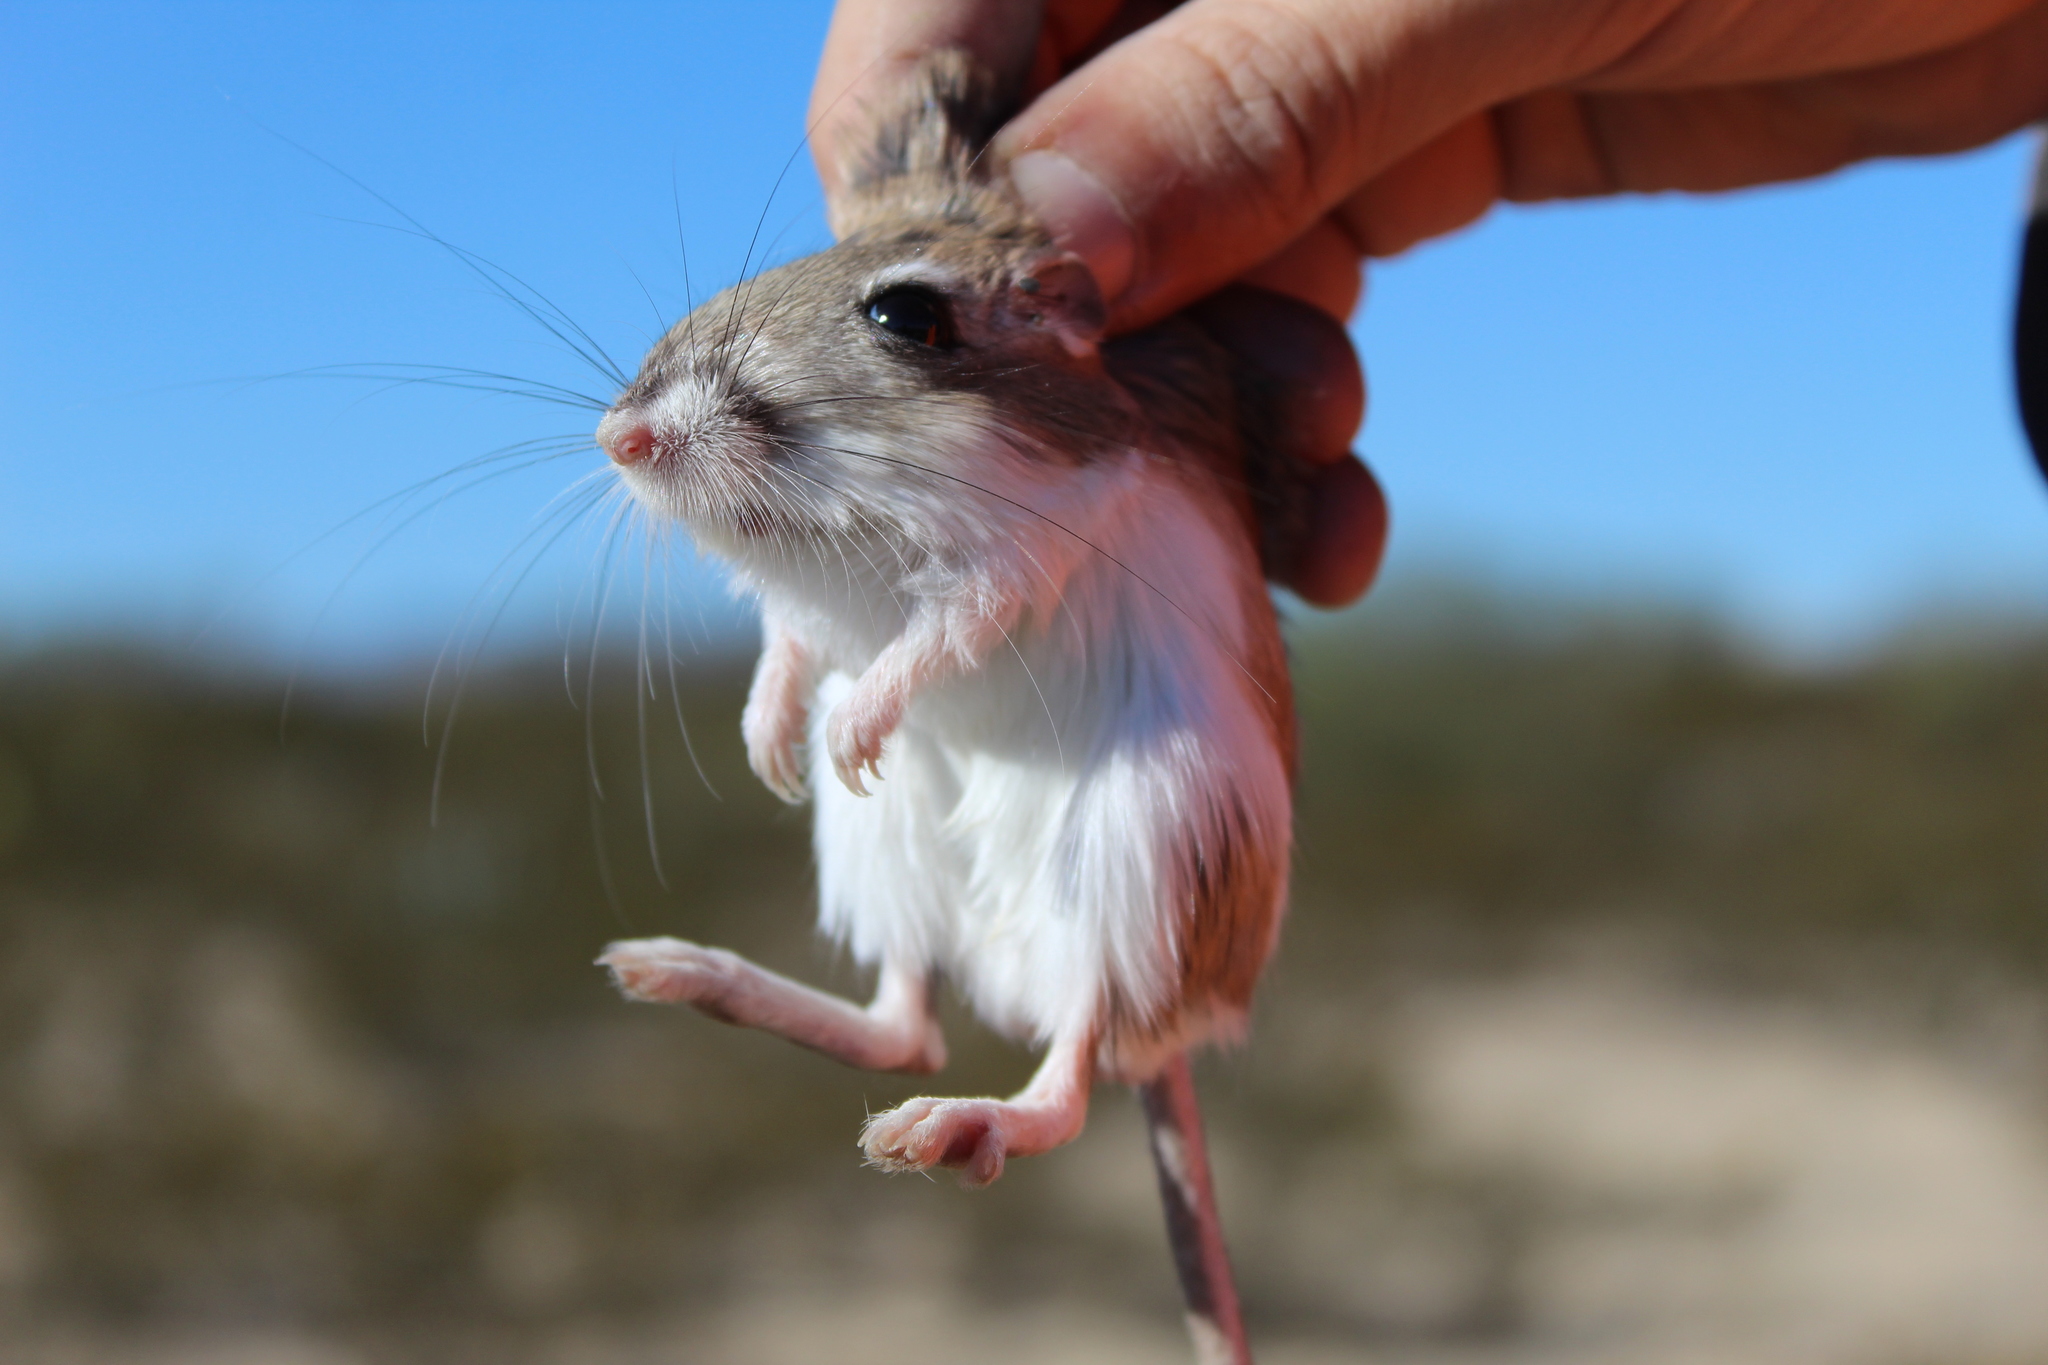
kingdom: Animalia
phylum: Chordata
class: Mammalia
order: Rodentia
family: Heteromyidae
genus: Dipodomys
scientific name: Dipodomys merriami
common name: Merriam's kangaroo rat
